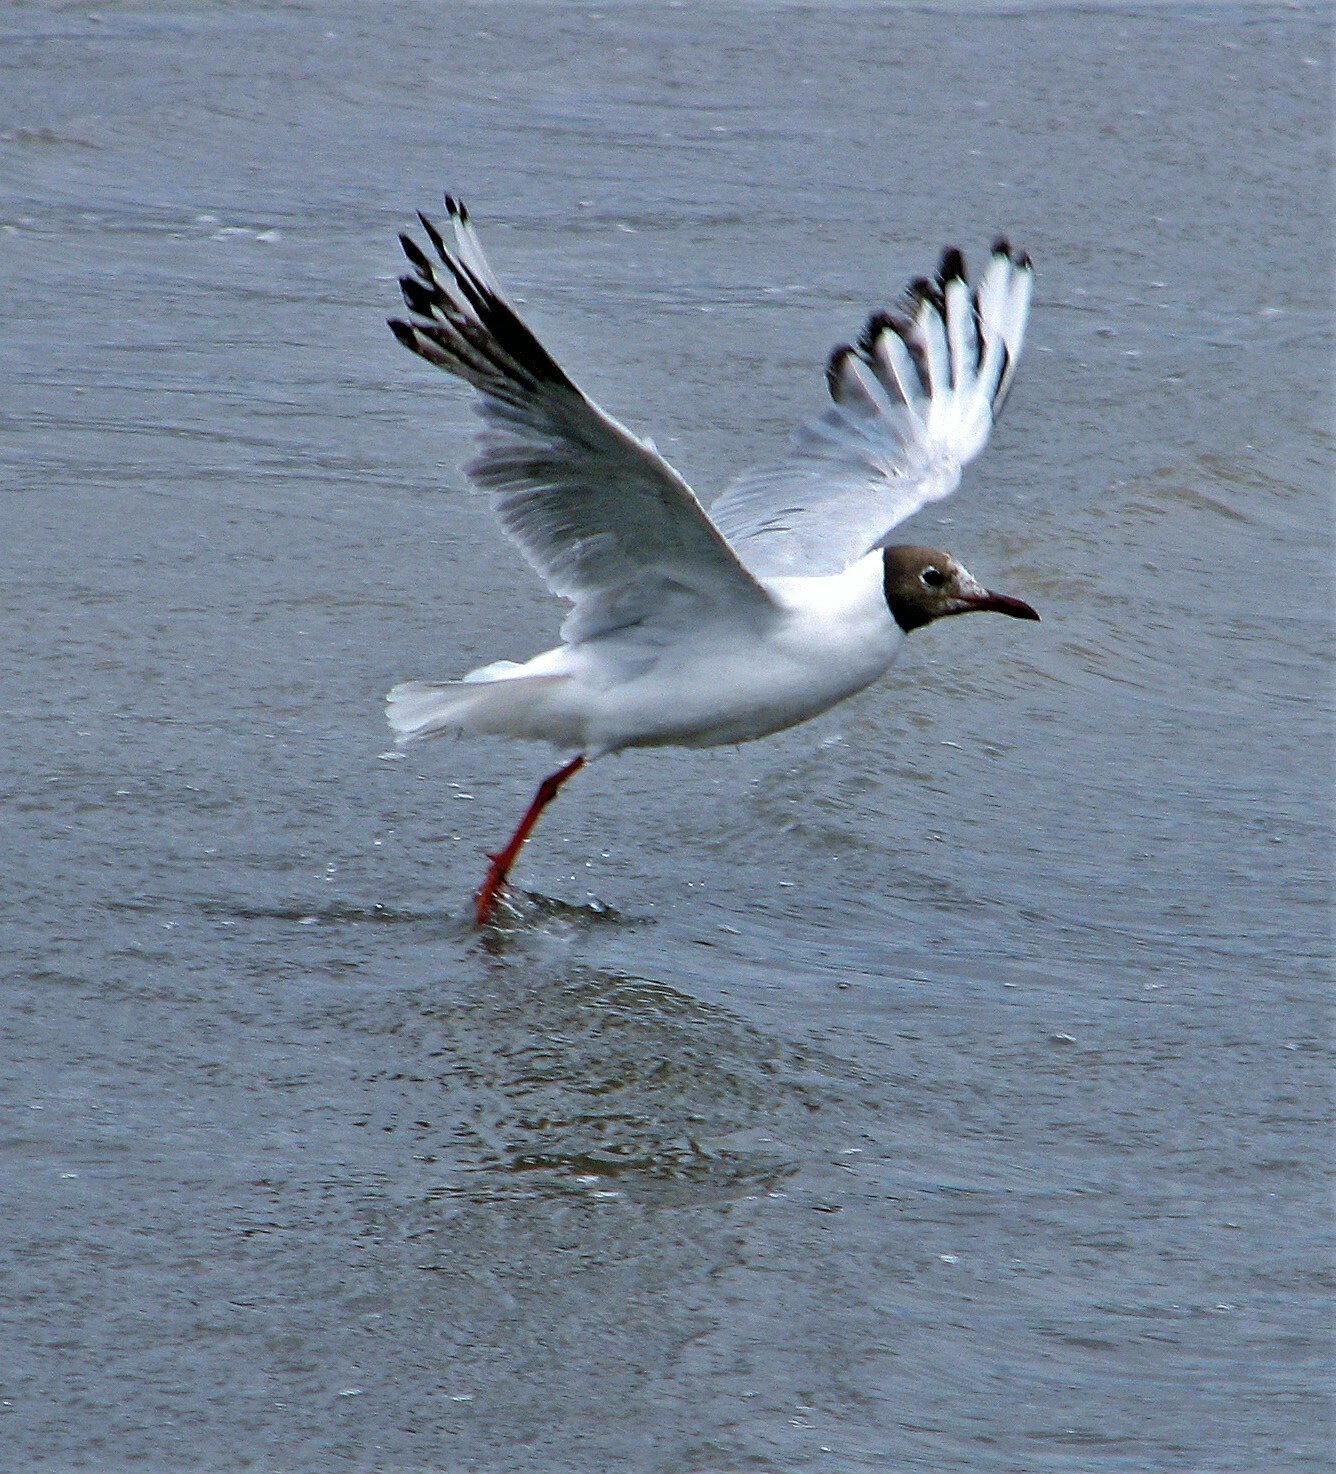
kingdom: Animalia
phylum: Chordata
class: Aves
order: Charadriiformes
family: Laridae
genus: Chroicocephalus
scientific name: Chroicocephalus maculipennis
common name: Brown-hooded gull
